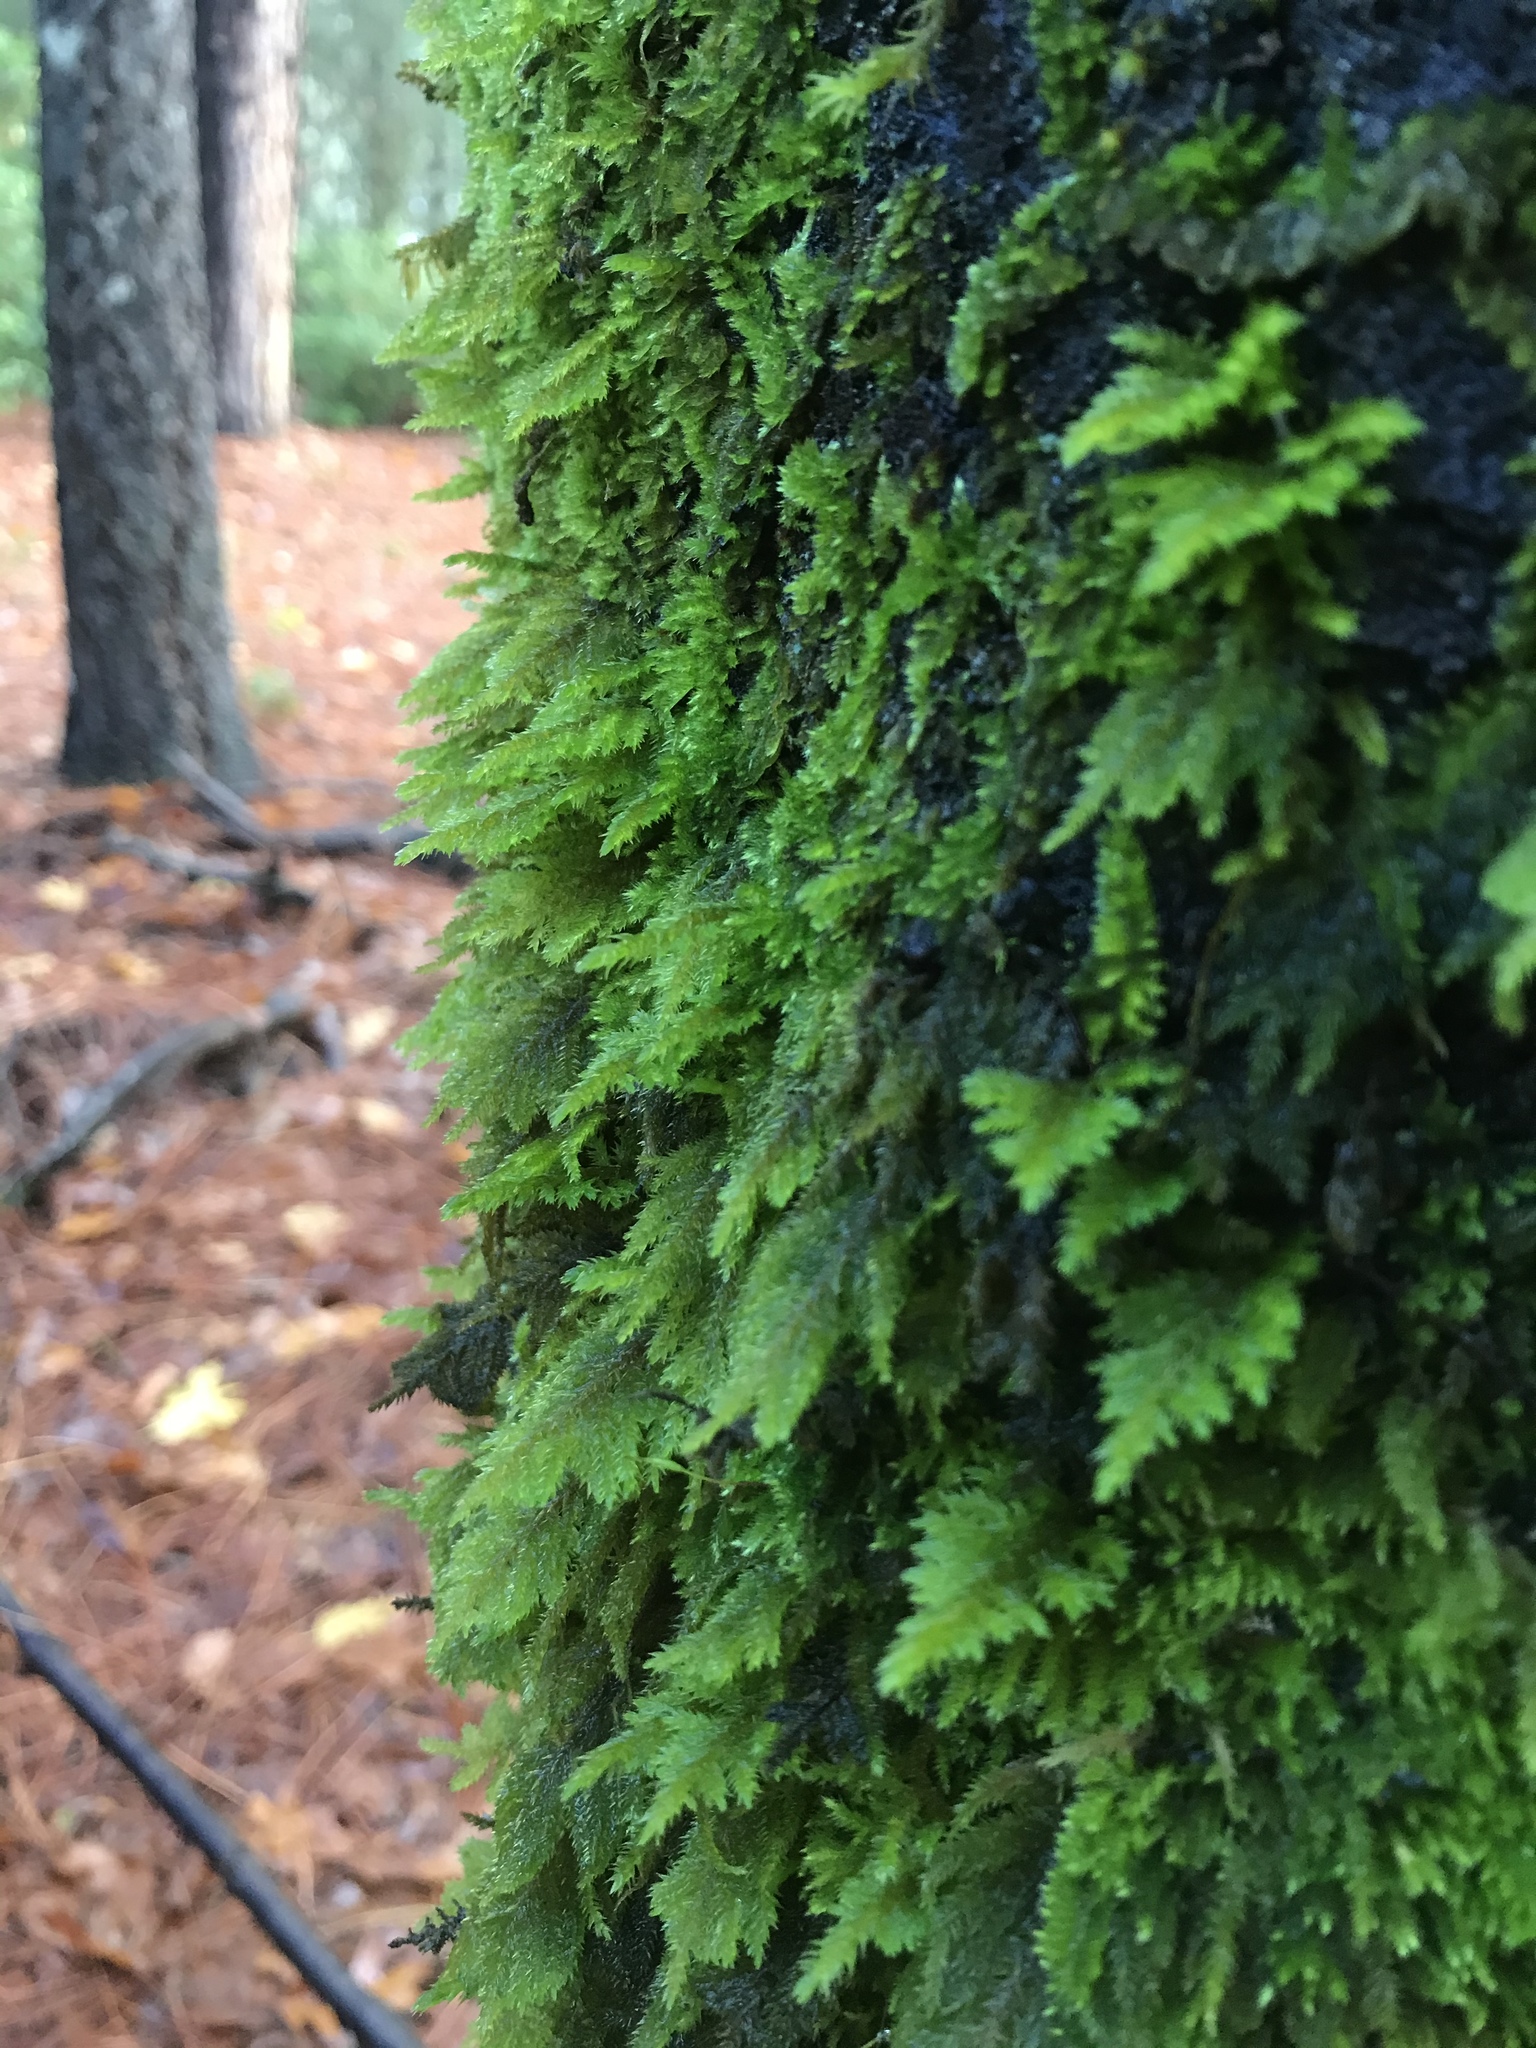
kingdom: Plantae
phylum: Bryophyta
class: Bryopsida
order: Hypnales
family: Cryphaeaceae
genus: Dendroalsia
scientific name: Dendroalsia abietina
